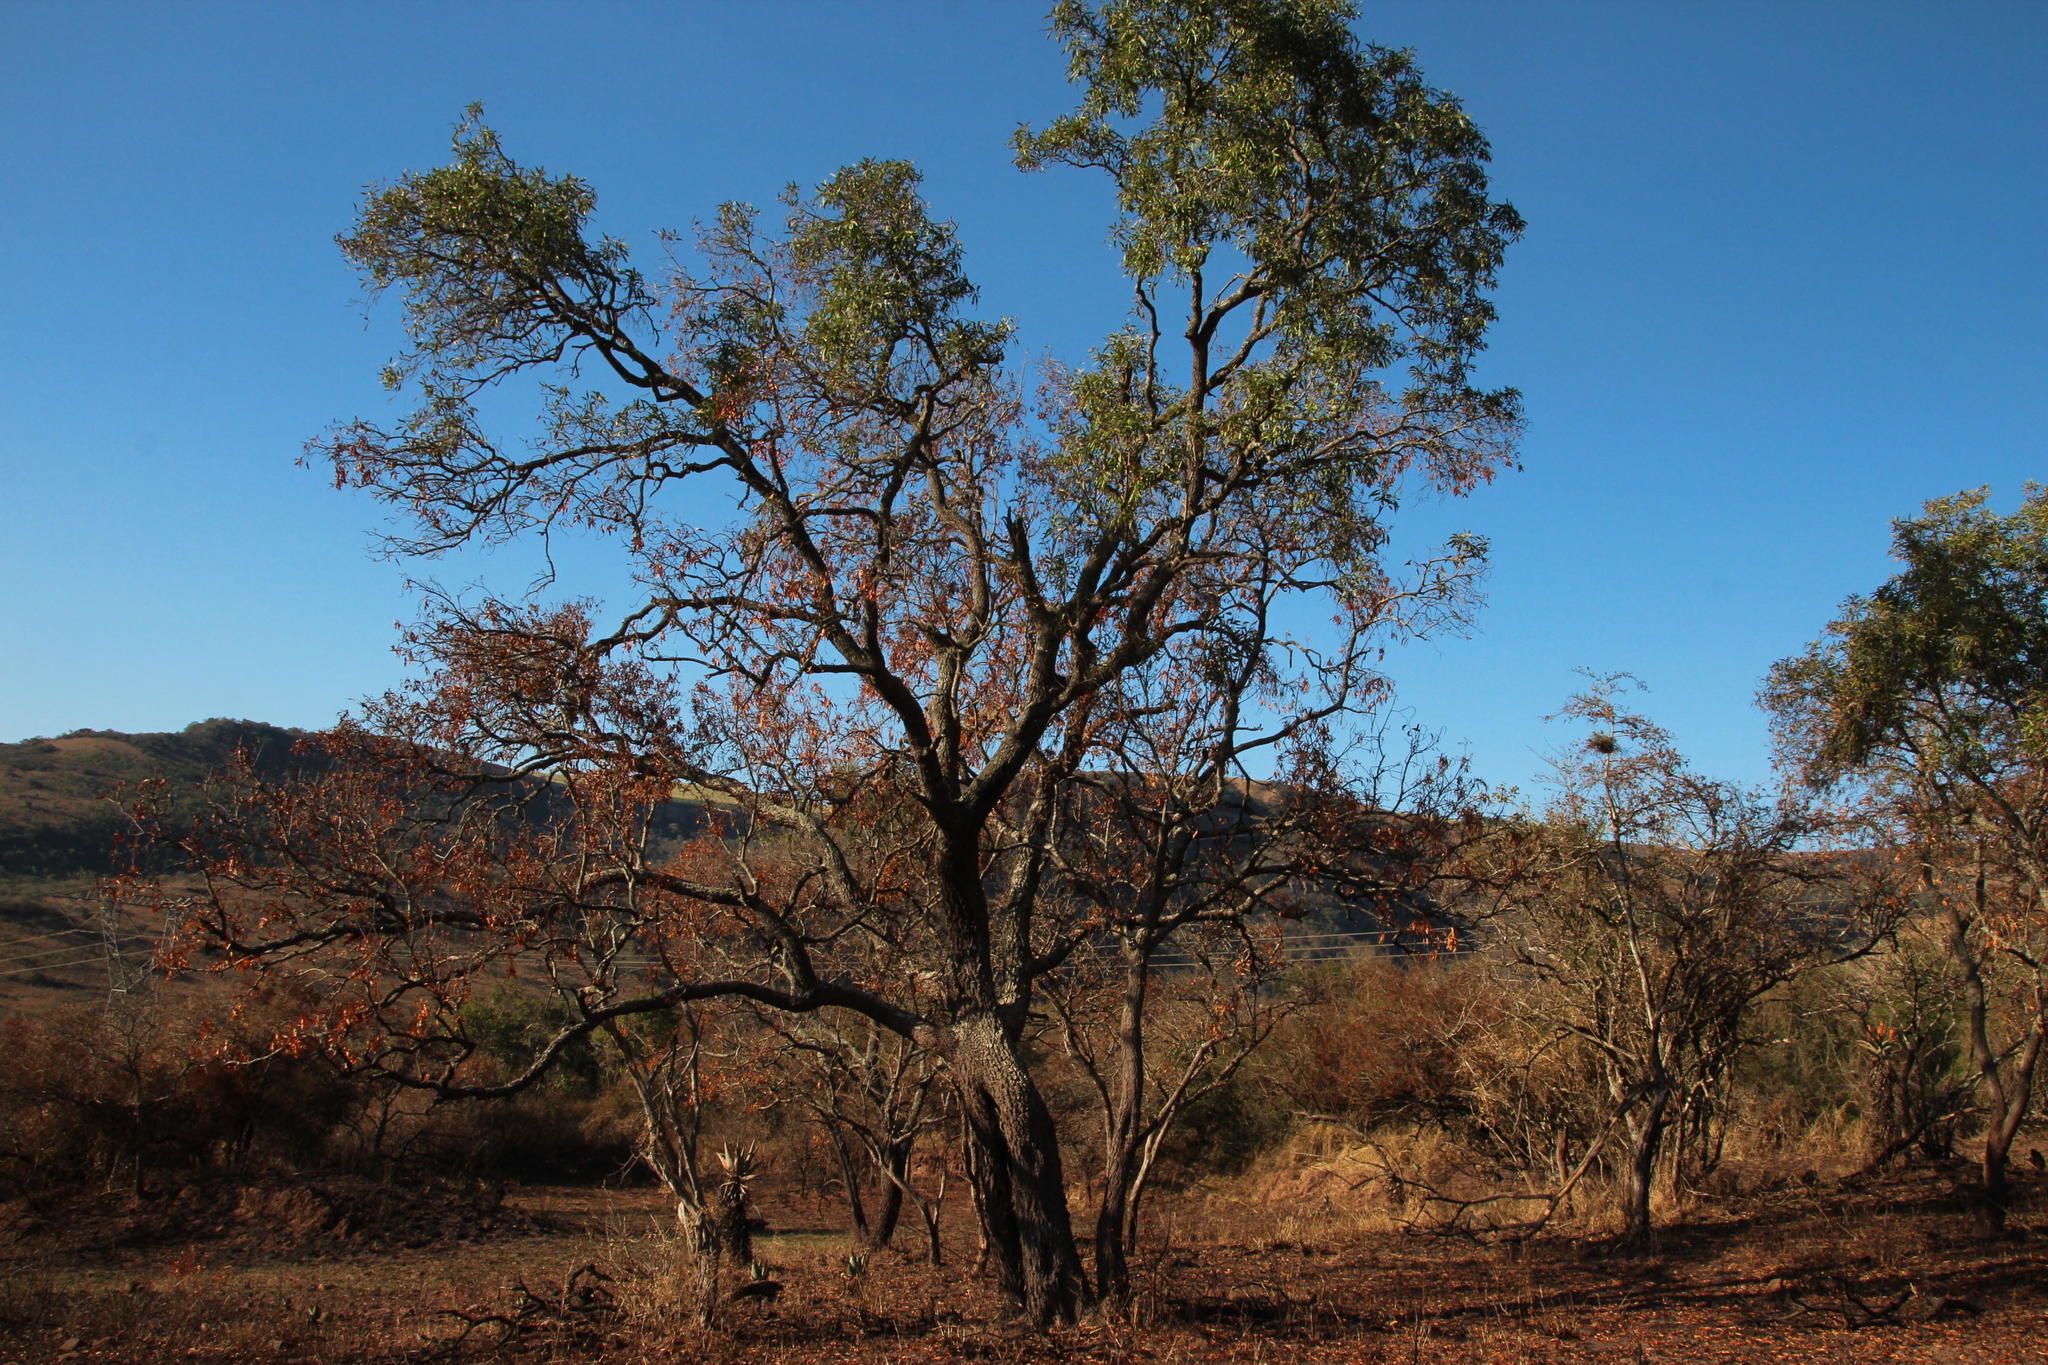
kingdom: Plantae
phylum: Tracheophyta
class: Magnoliopsida
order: Proteales
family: Proteaceae
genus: Faurea
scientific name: Faurea saligna
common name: African bean
